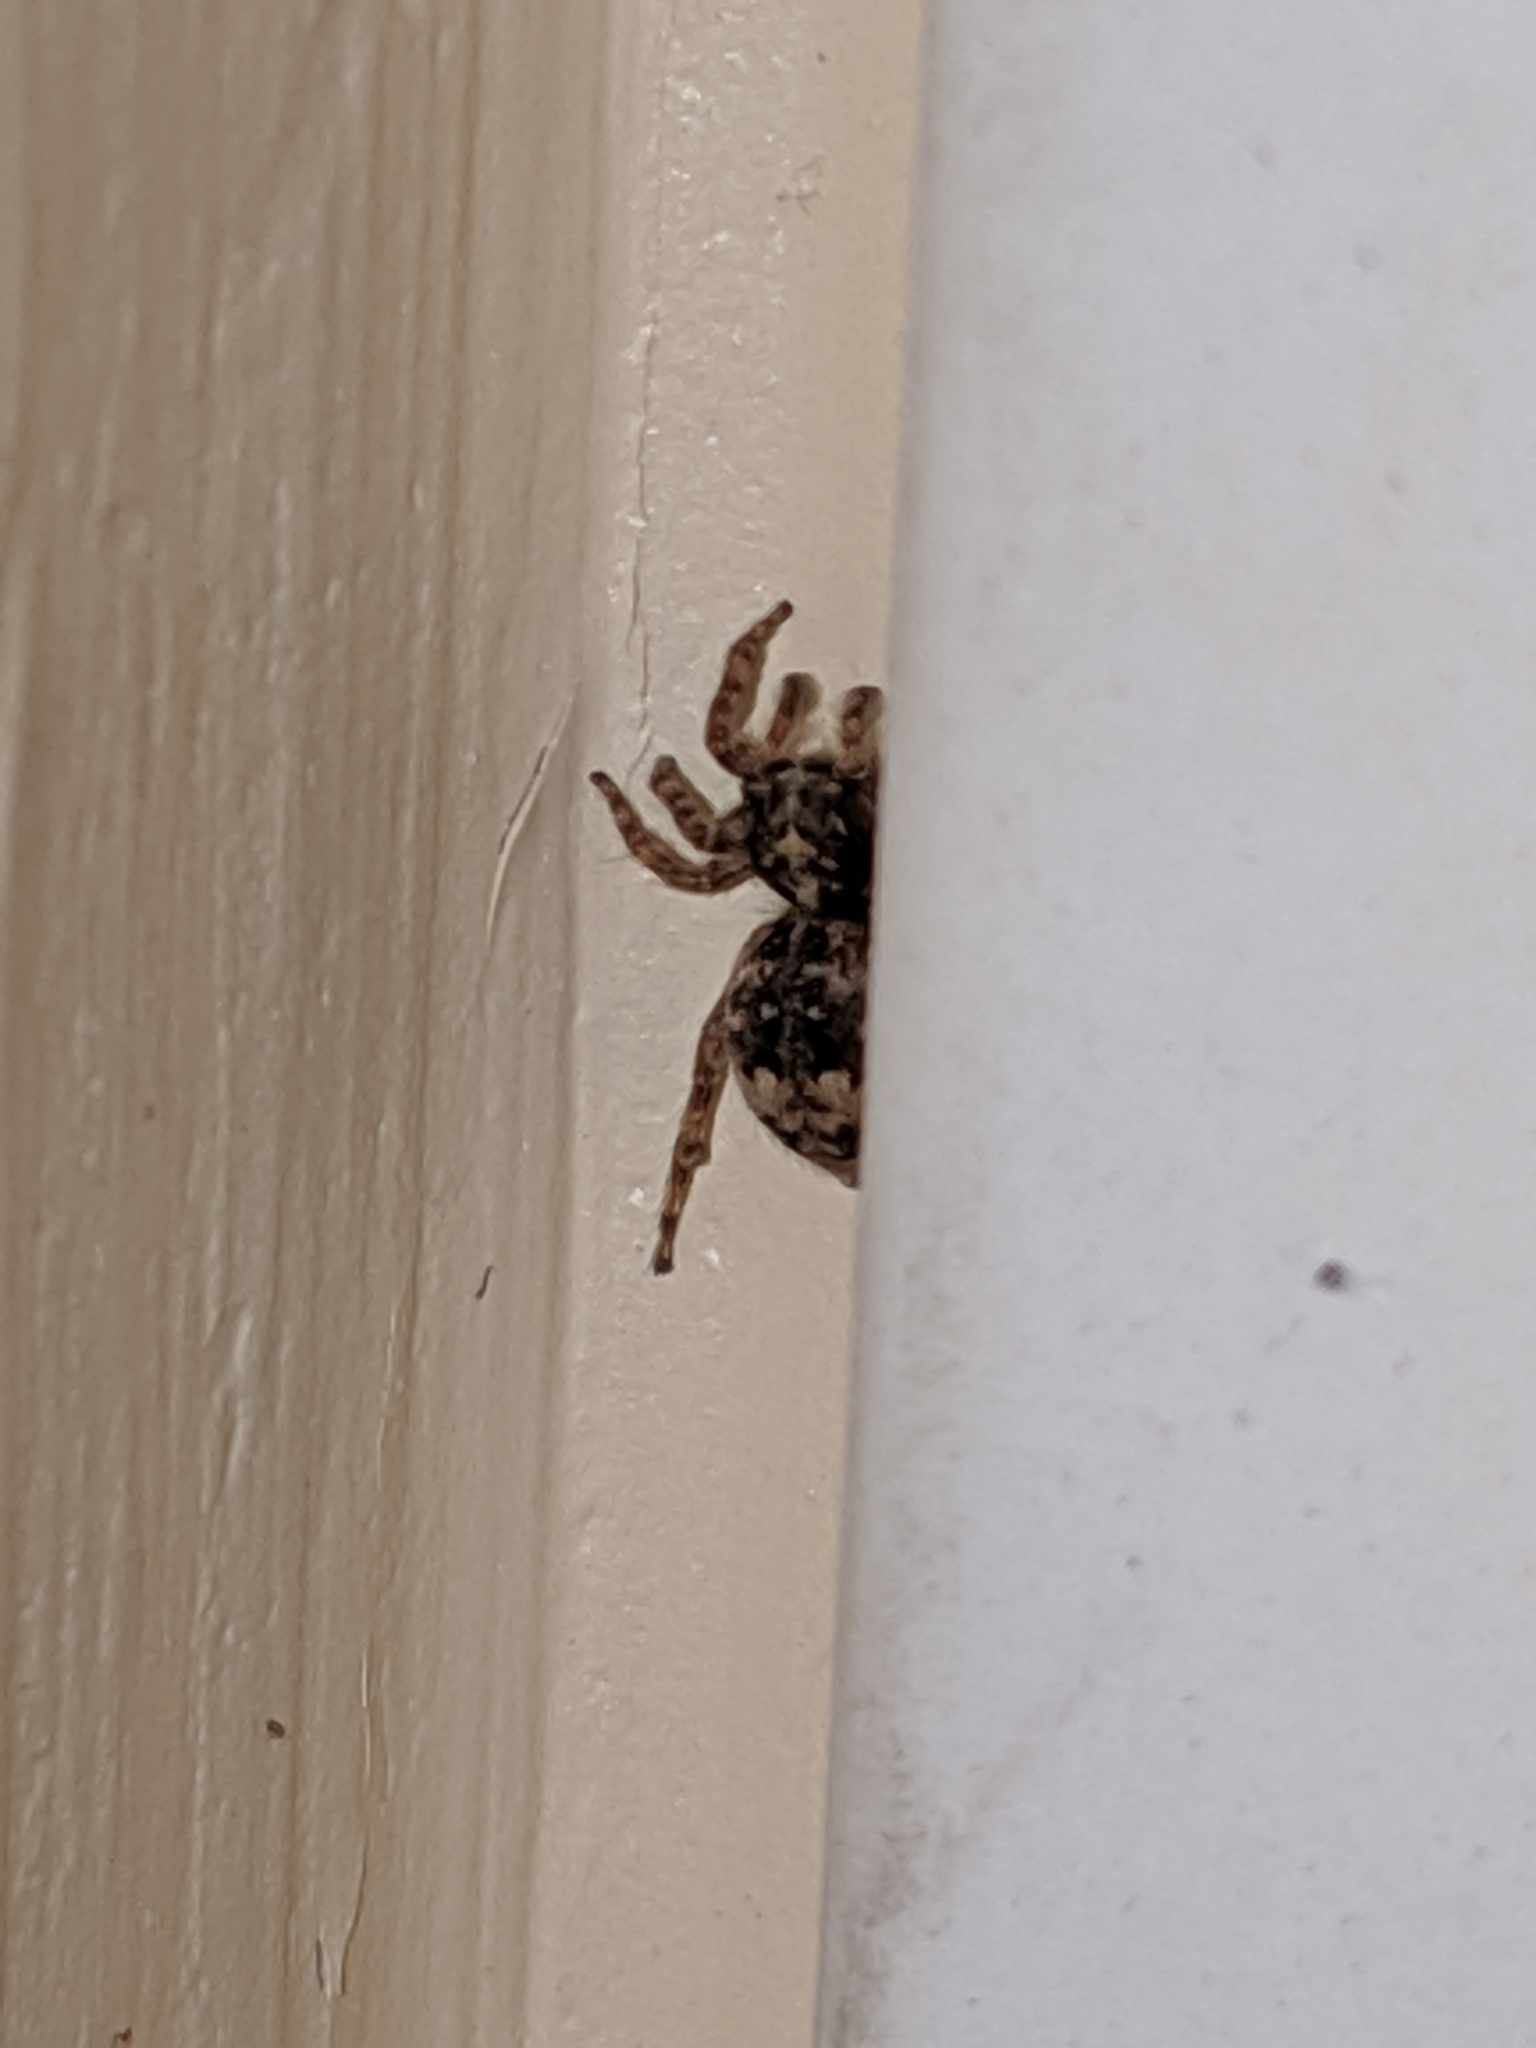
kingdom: Animalia
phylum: Arthropoda
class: Arachnida
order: Araneae
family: Salticidae
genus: Attulus
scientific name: Attulus fasciger
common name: Asiatic wall jumping spider
